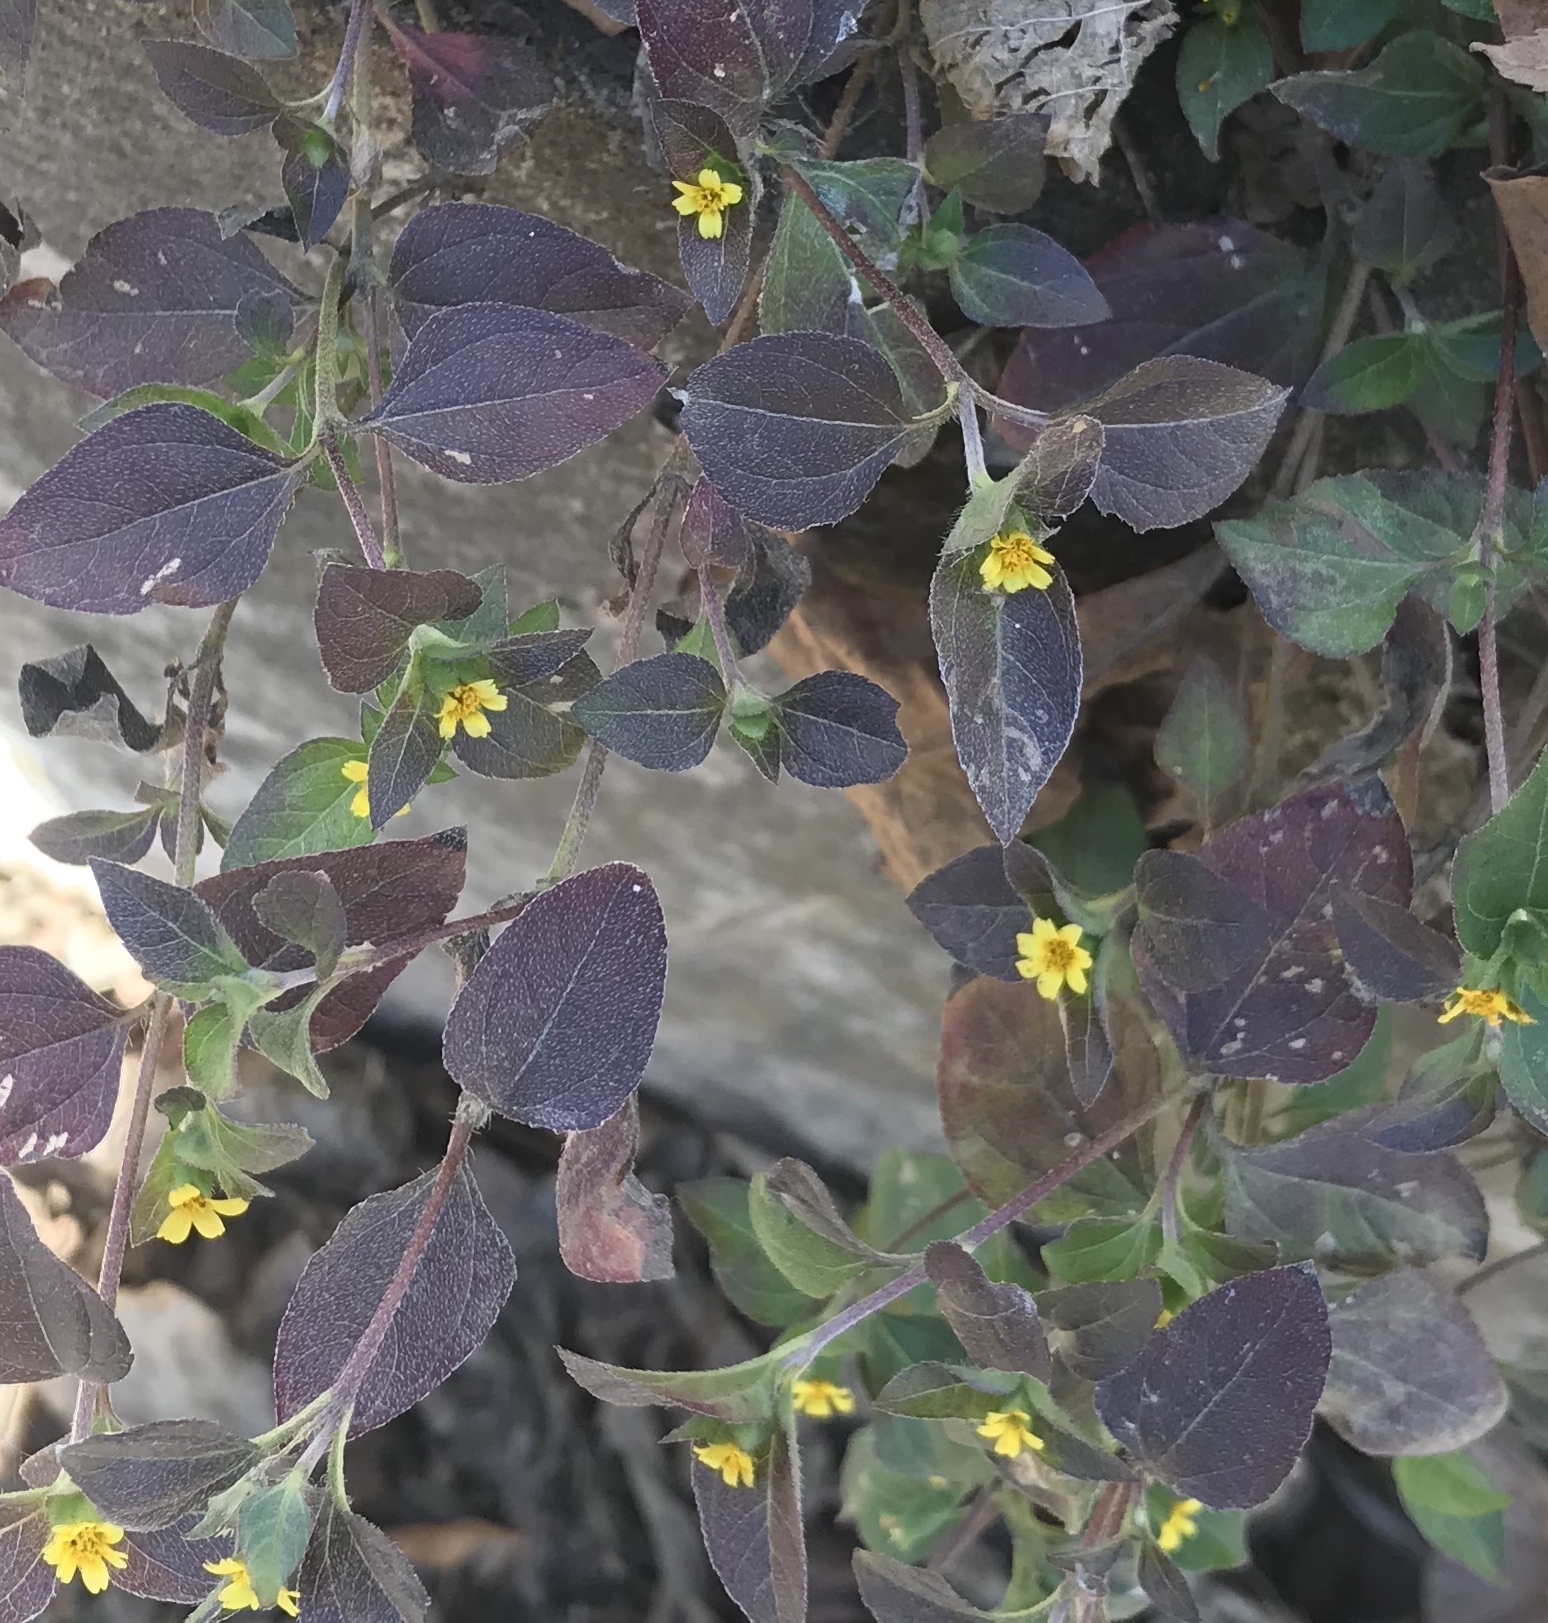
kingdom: Plantae
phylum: Tracheophyta
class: Magnoliopsida
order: Asterales
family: Asteraceae
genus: Calyptocarpus
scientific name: Calyptocarpus vialis
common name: Straggler daisy
